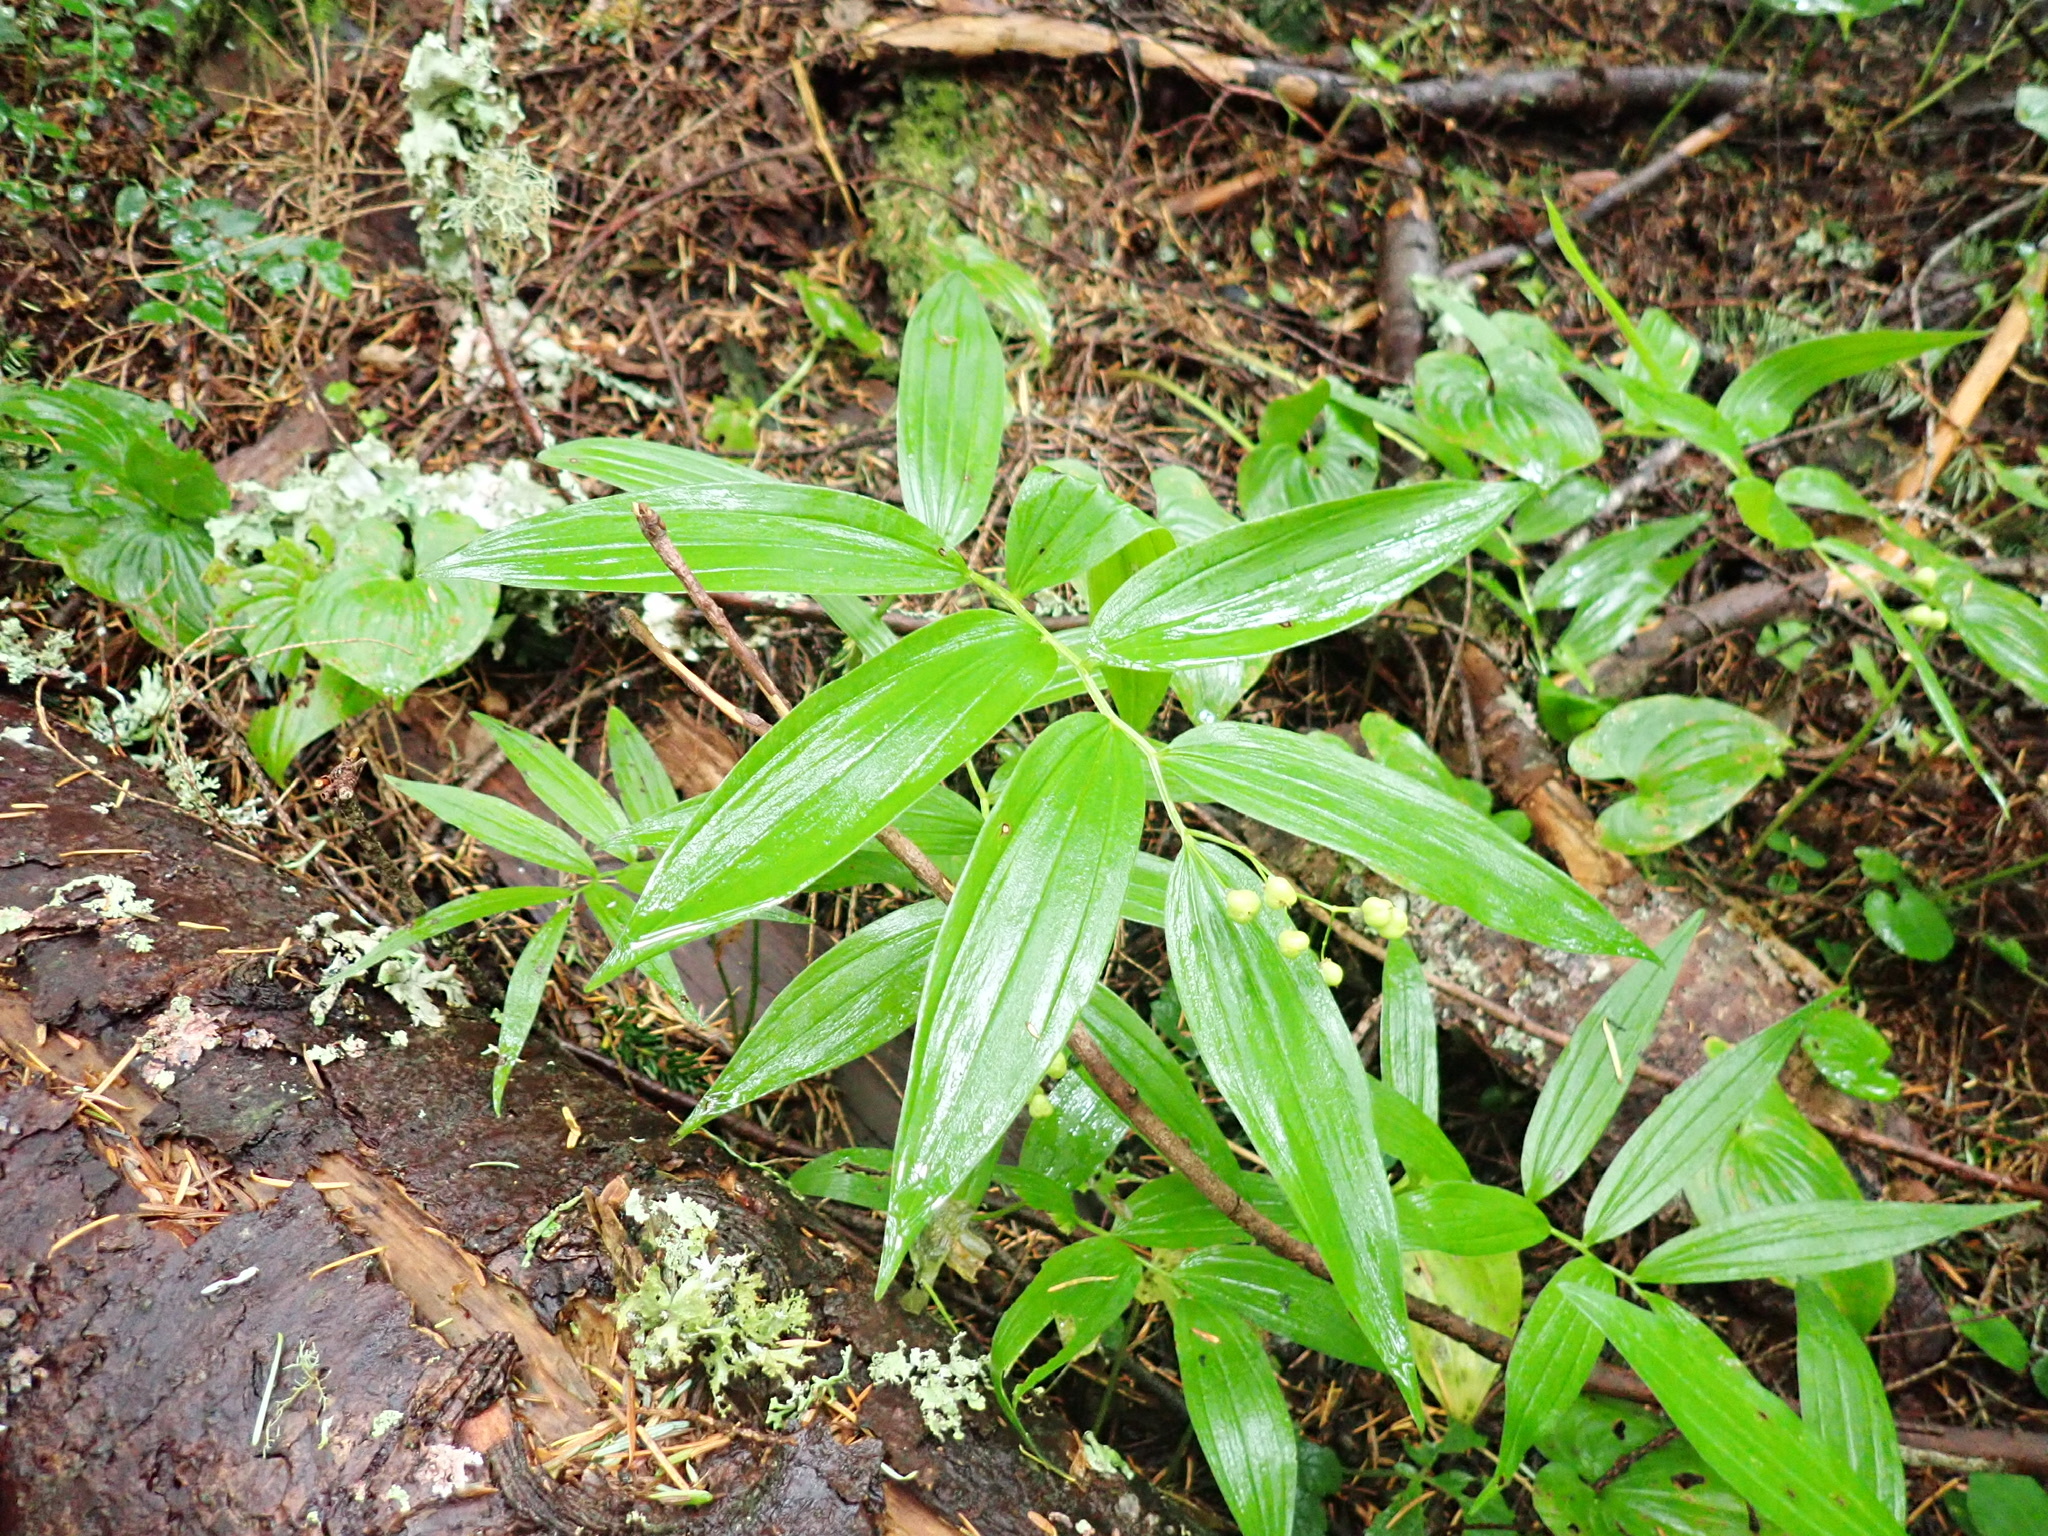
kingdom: Plantae
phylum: Tracheophyta
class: Liliopsida
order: Asparagales
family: Asparagaceae
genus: Maianthemum
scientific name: Maianthemum stellatum
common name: Little false solomon's seal
